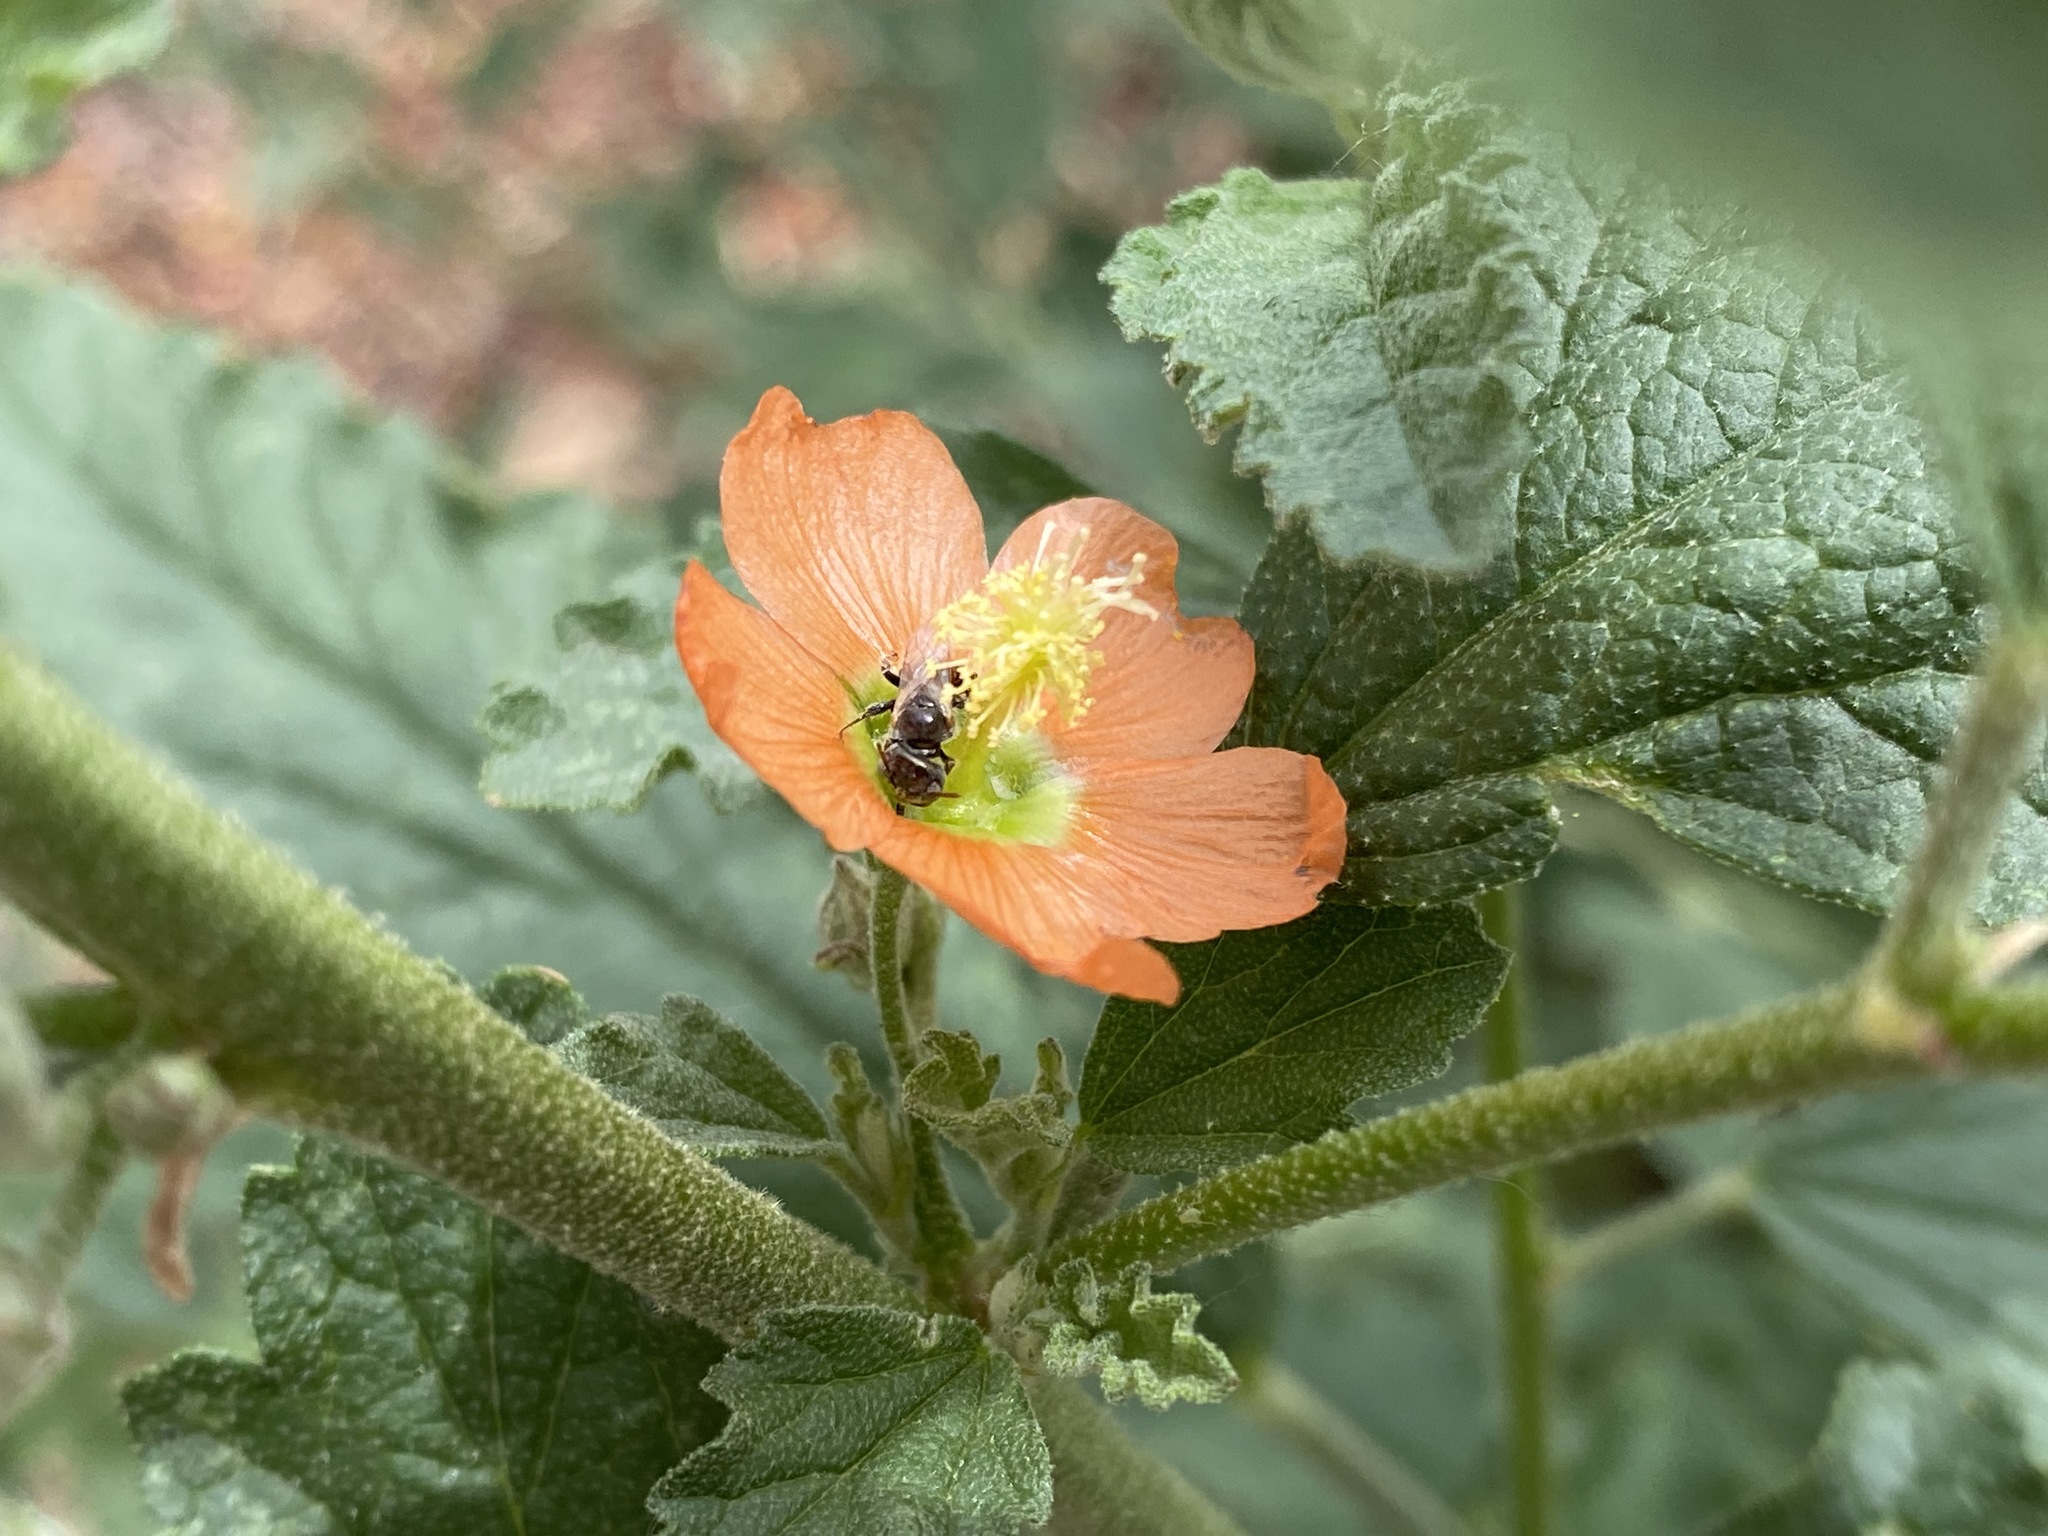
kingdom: Animalia
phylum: Arthropoda
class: Insecta
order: Hymenoptera
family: Andrenidae
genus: Macrotera
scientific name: Macrotera latior
